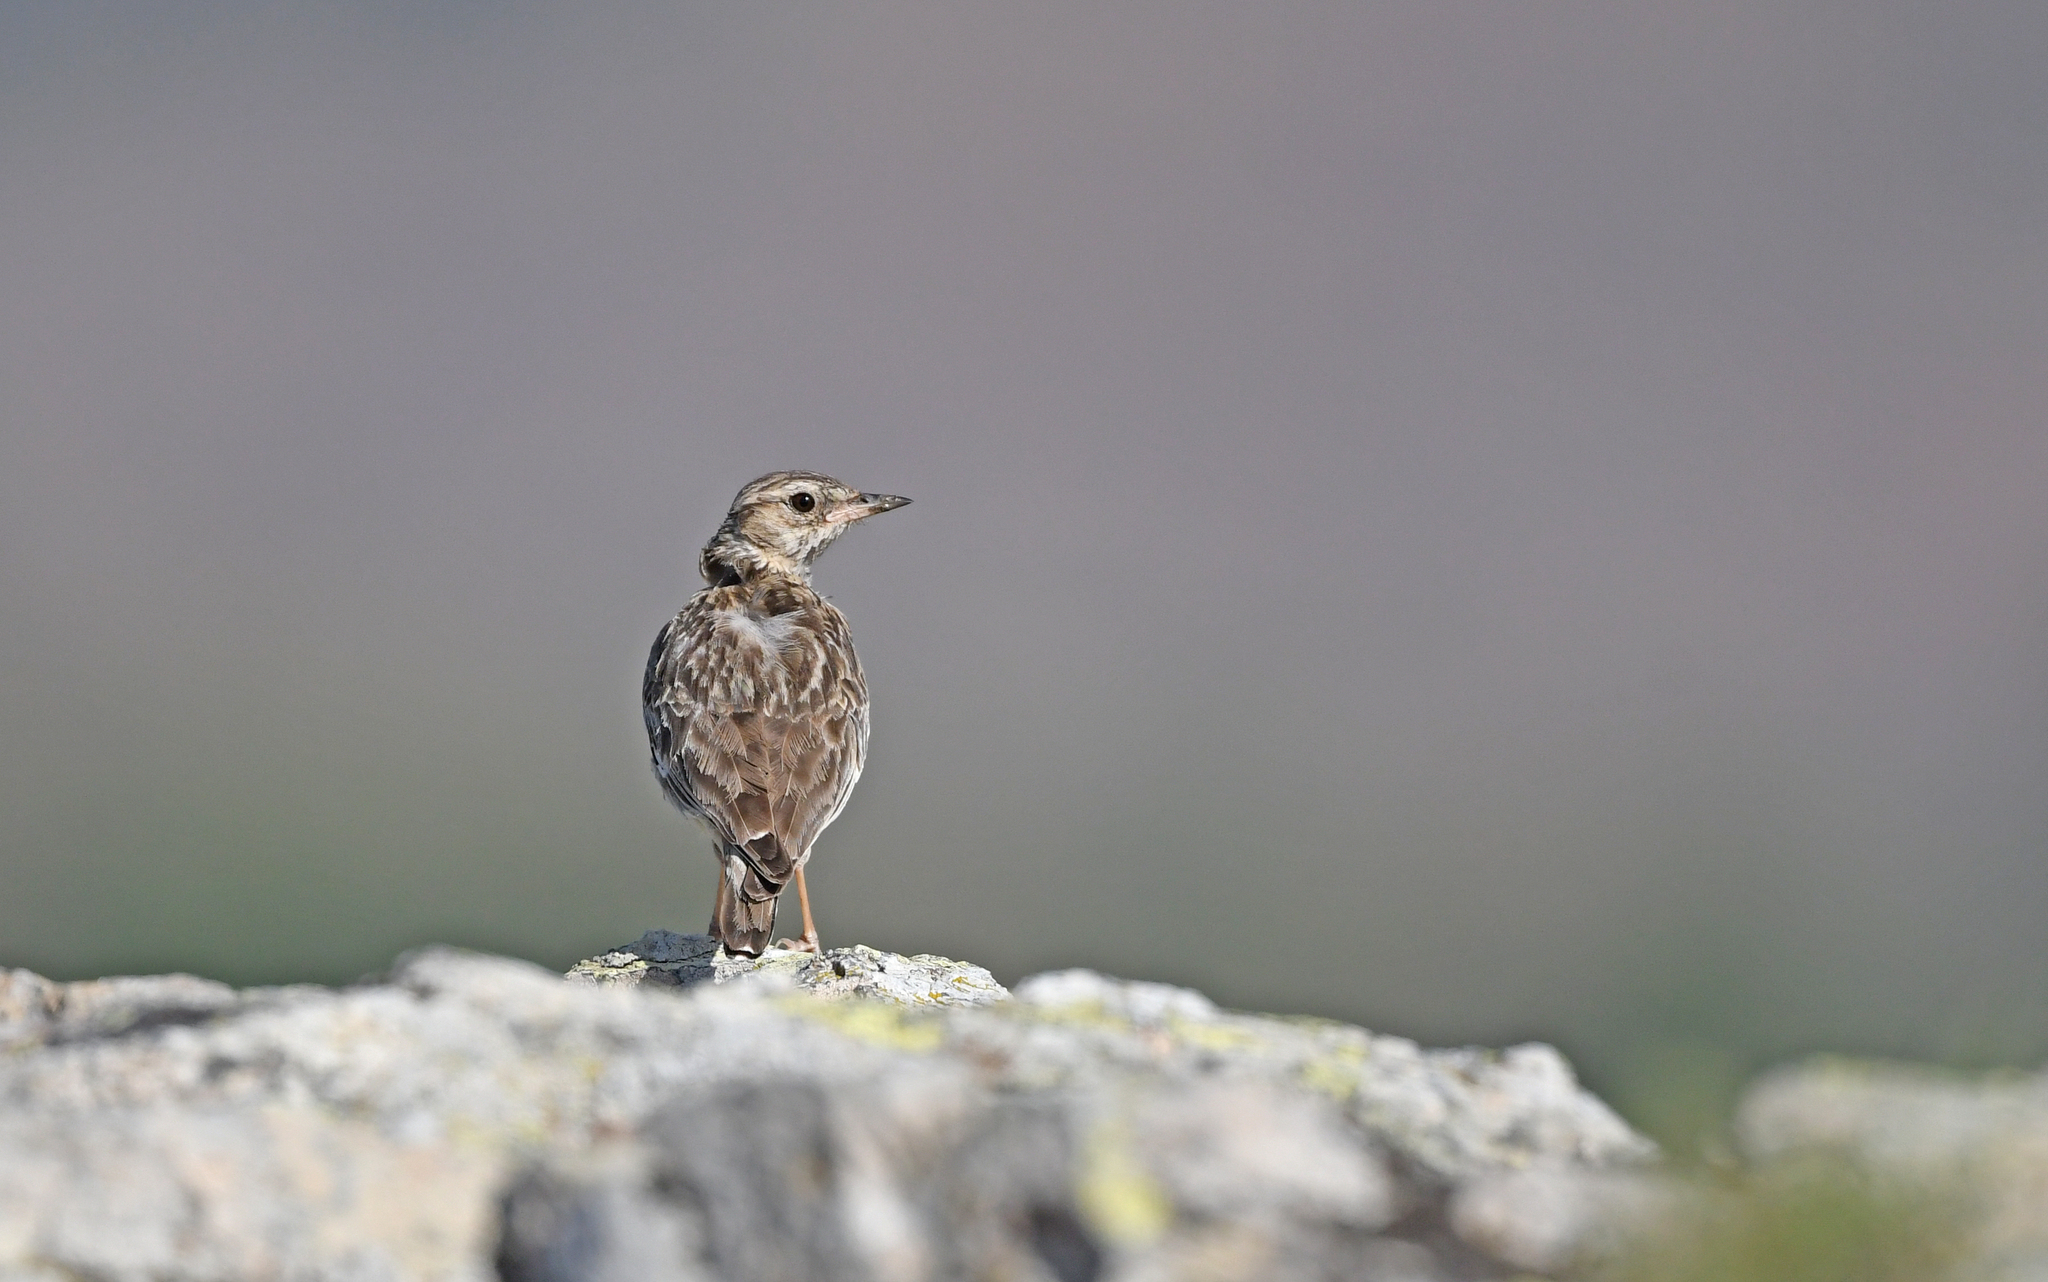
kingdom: Animalia
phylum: Chordata
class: Aves
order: Passeriformes
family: Alaudidae
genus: Lullula
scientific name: Lullula arborea
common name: Woodlark
